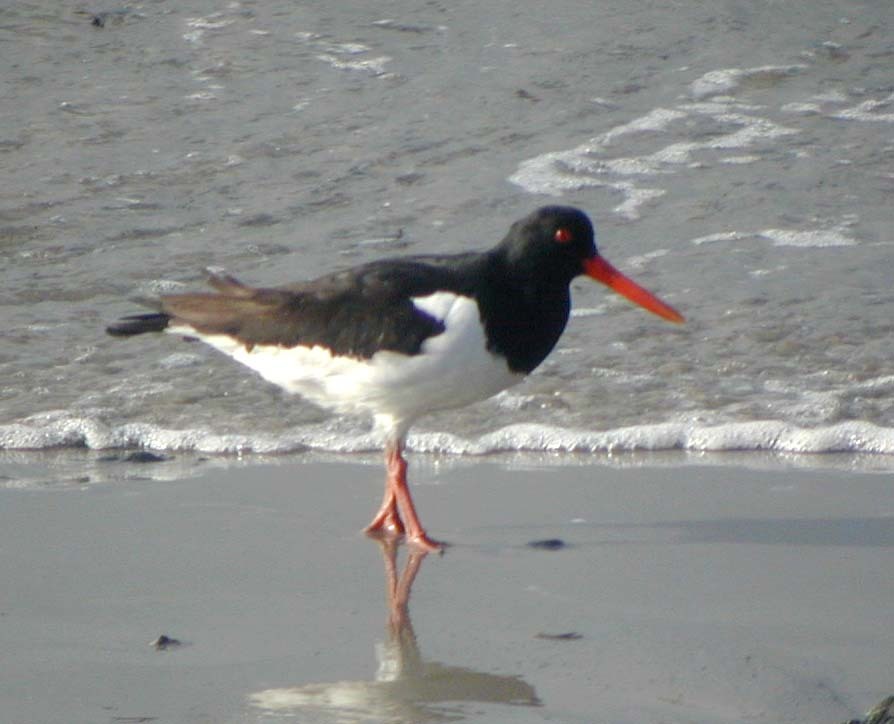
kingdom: Animalia
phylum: Chordata
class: Aves
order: Charadriiformes
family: Haematopodidae
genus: Haematopus
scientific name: Haematopus ostralegus
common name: Eurasian oystercatcher
